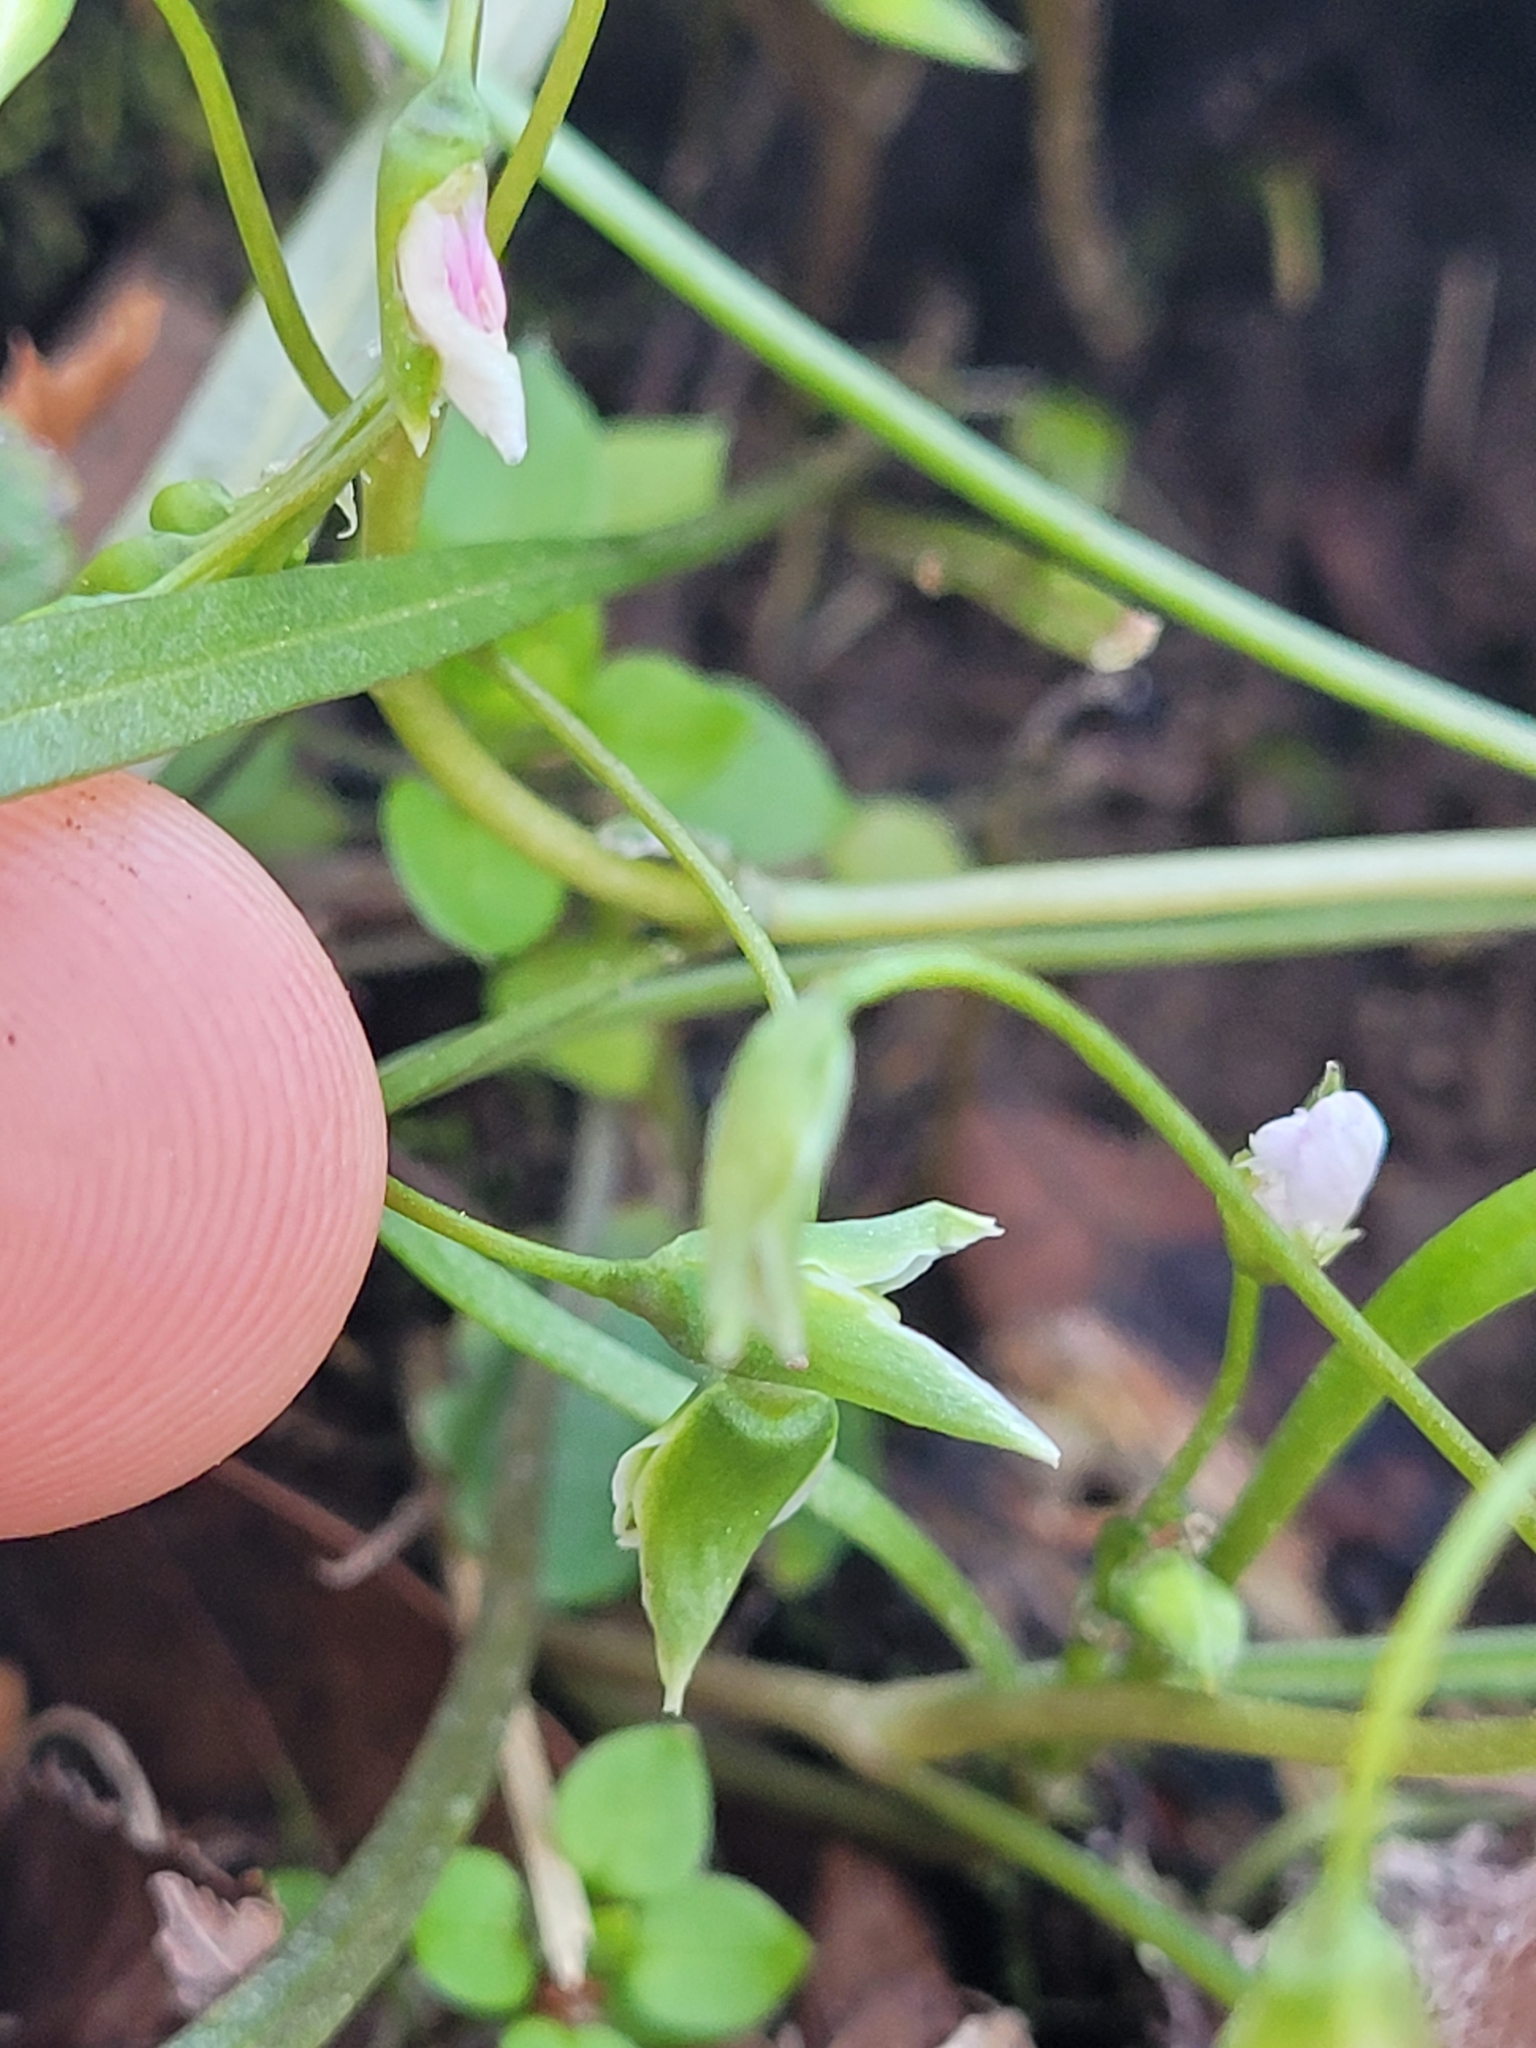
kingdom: Plantae
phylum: Tracheophyta
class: Magnoliopsida
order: Caryophyllales
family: Montiaceae
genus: Claytonia
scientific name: Claytonia virginica
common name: Virginia springbeauty
